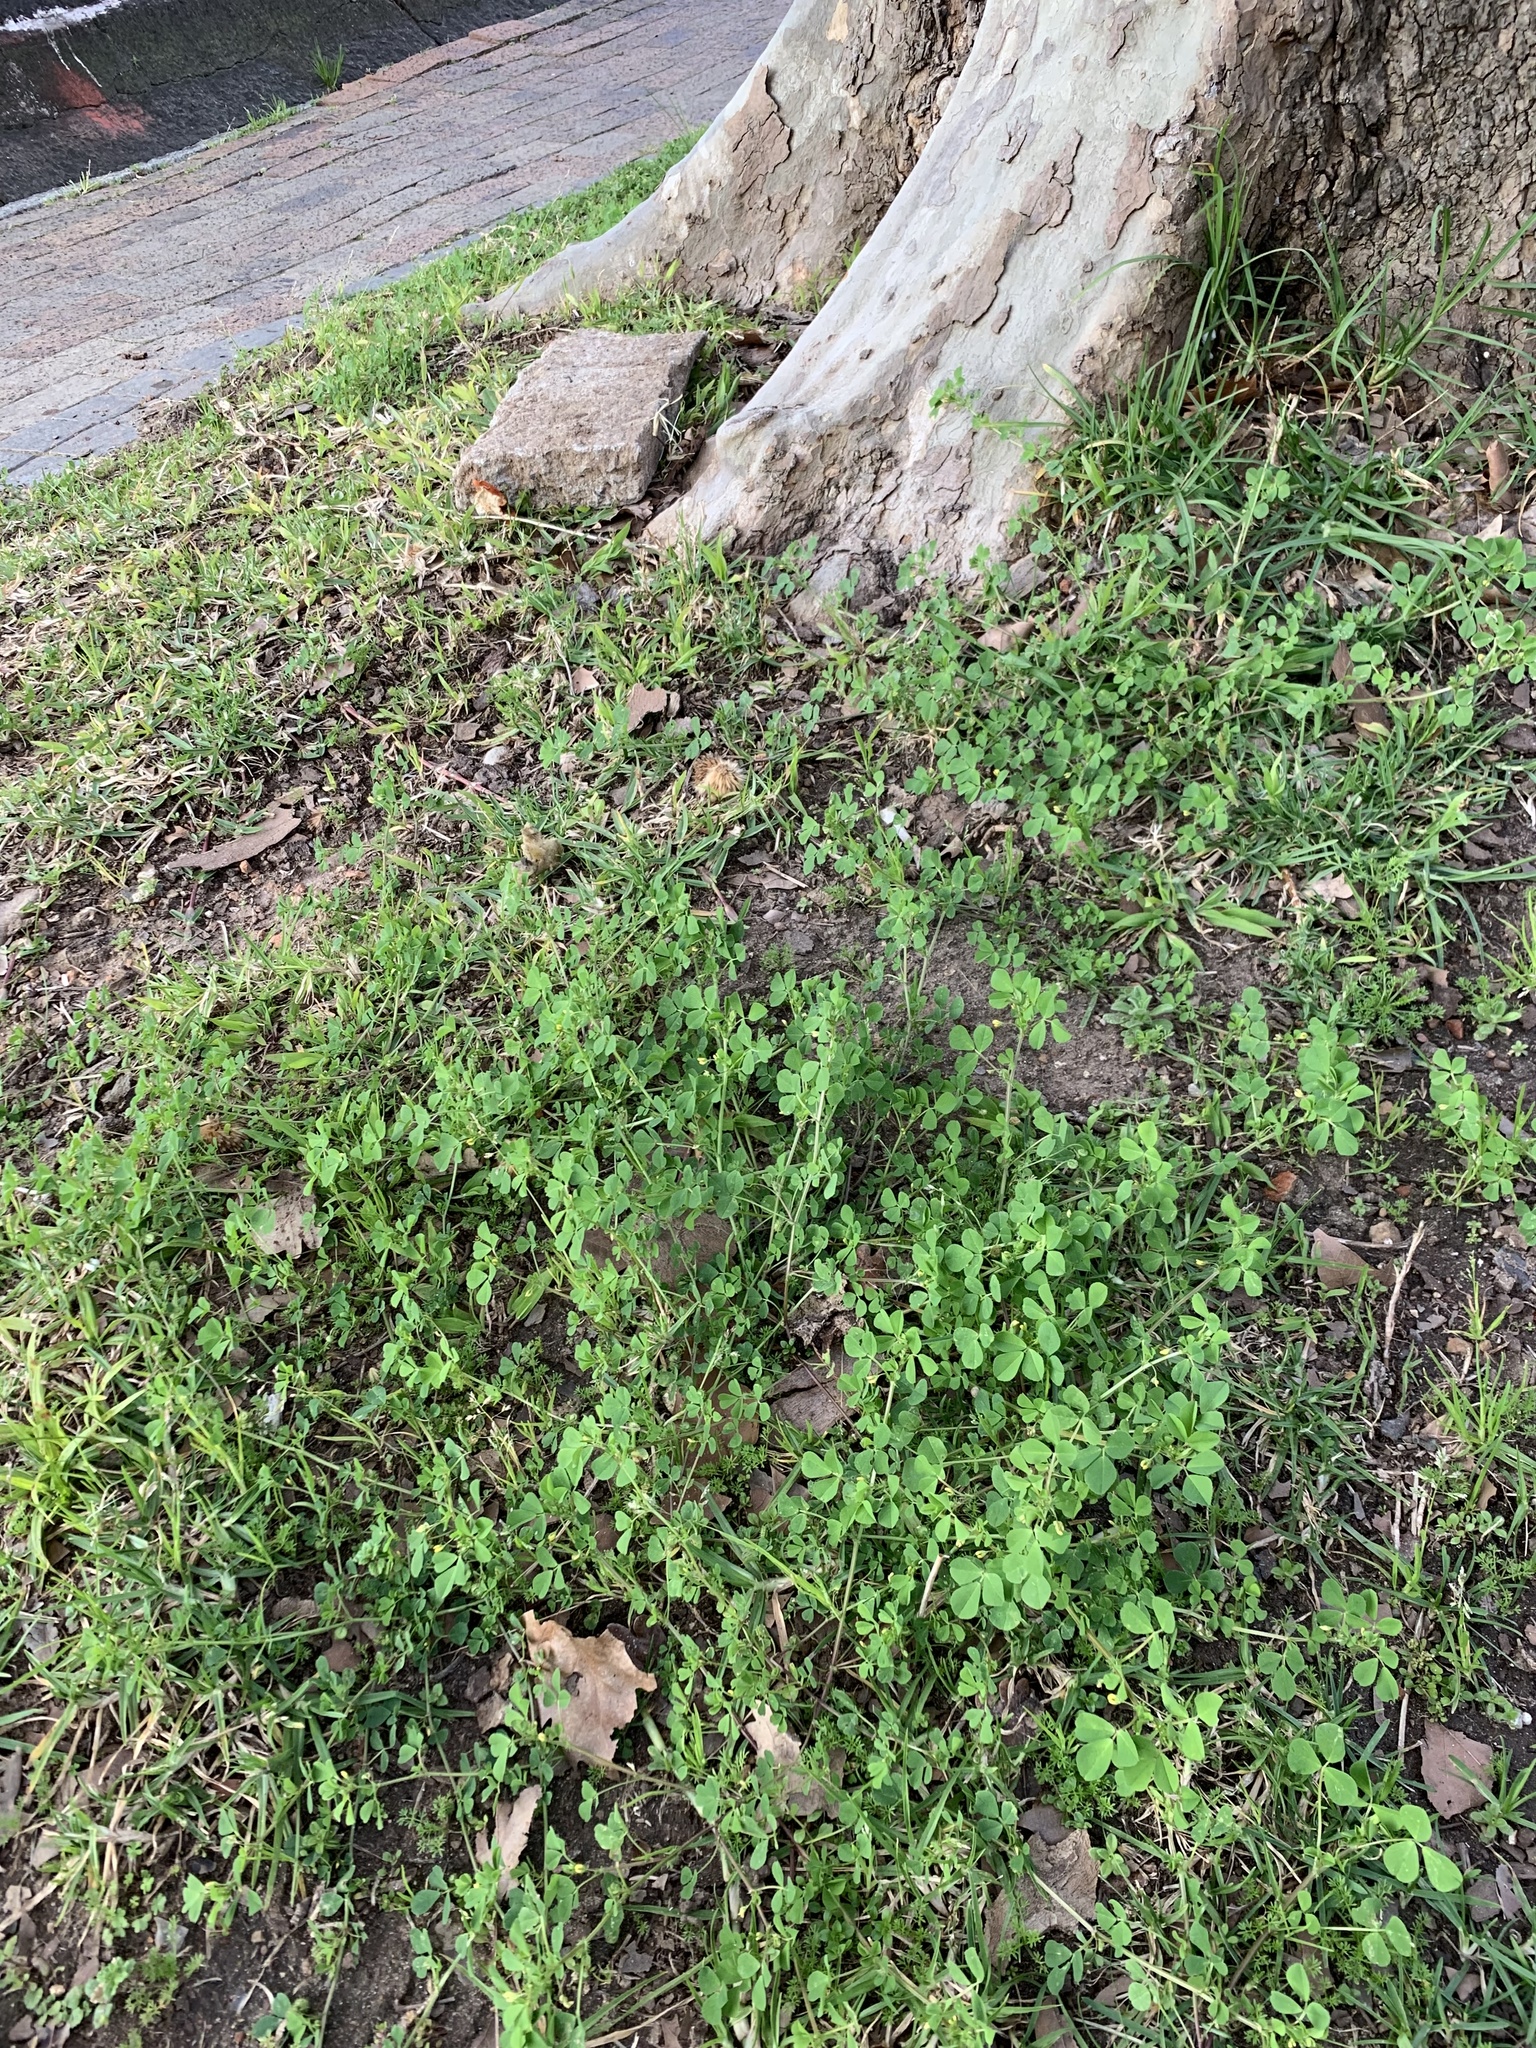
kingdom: Plantae
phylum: Tracheophyta
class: Magnoliopsida
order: Fabales
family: Fabaceae
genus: Medicago
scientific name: Medicago polymorpha
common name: Burclover
